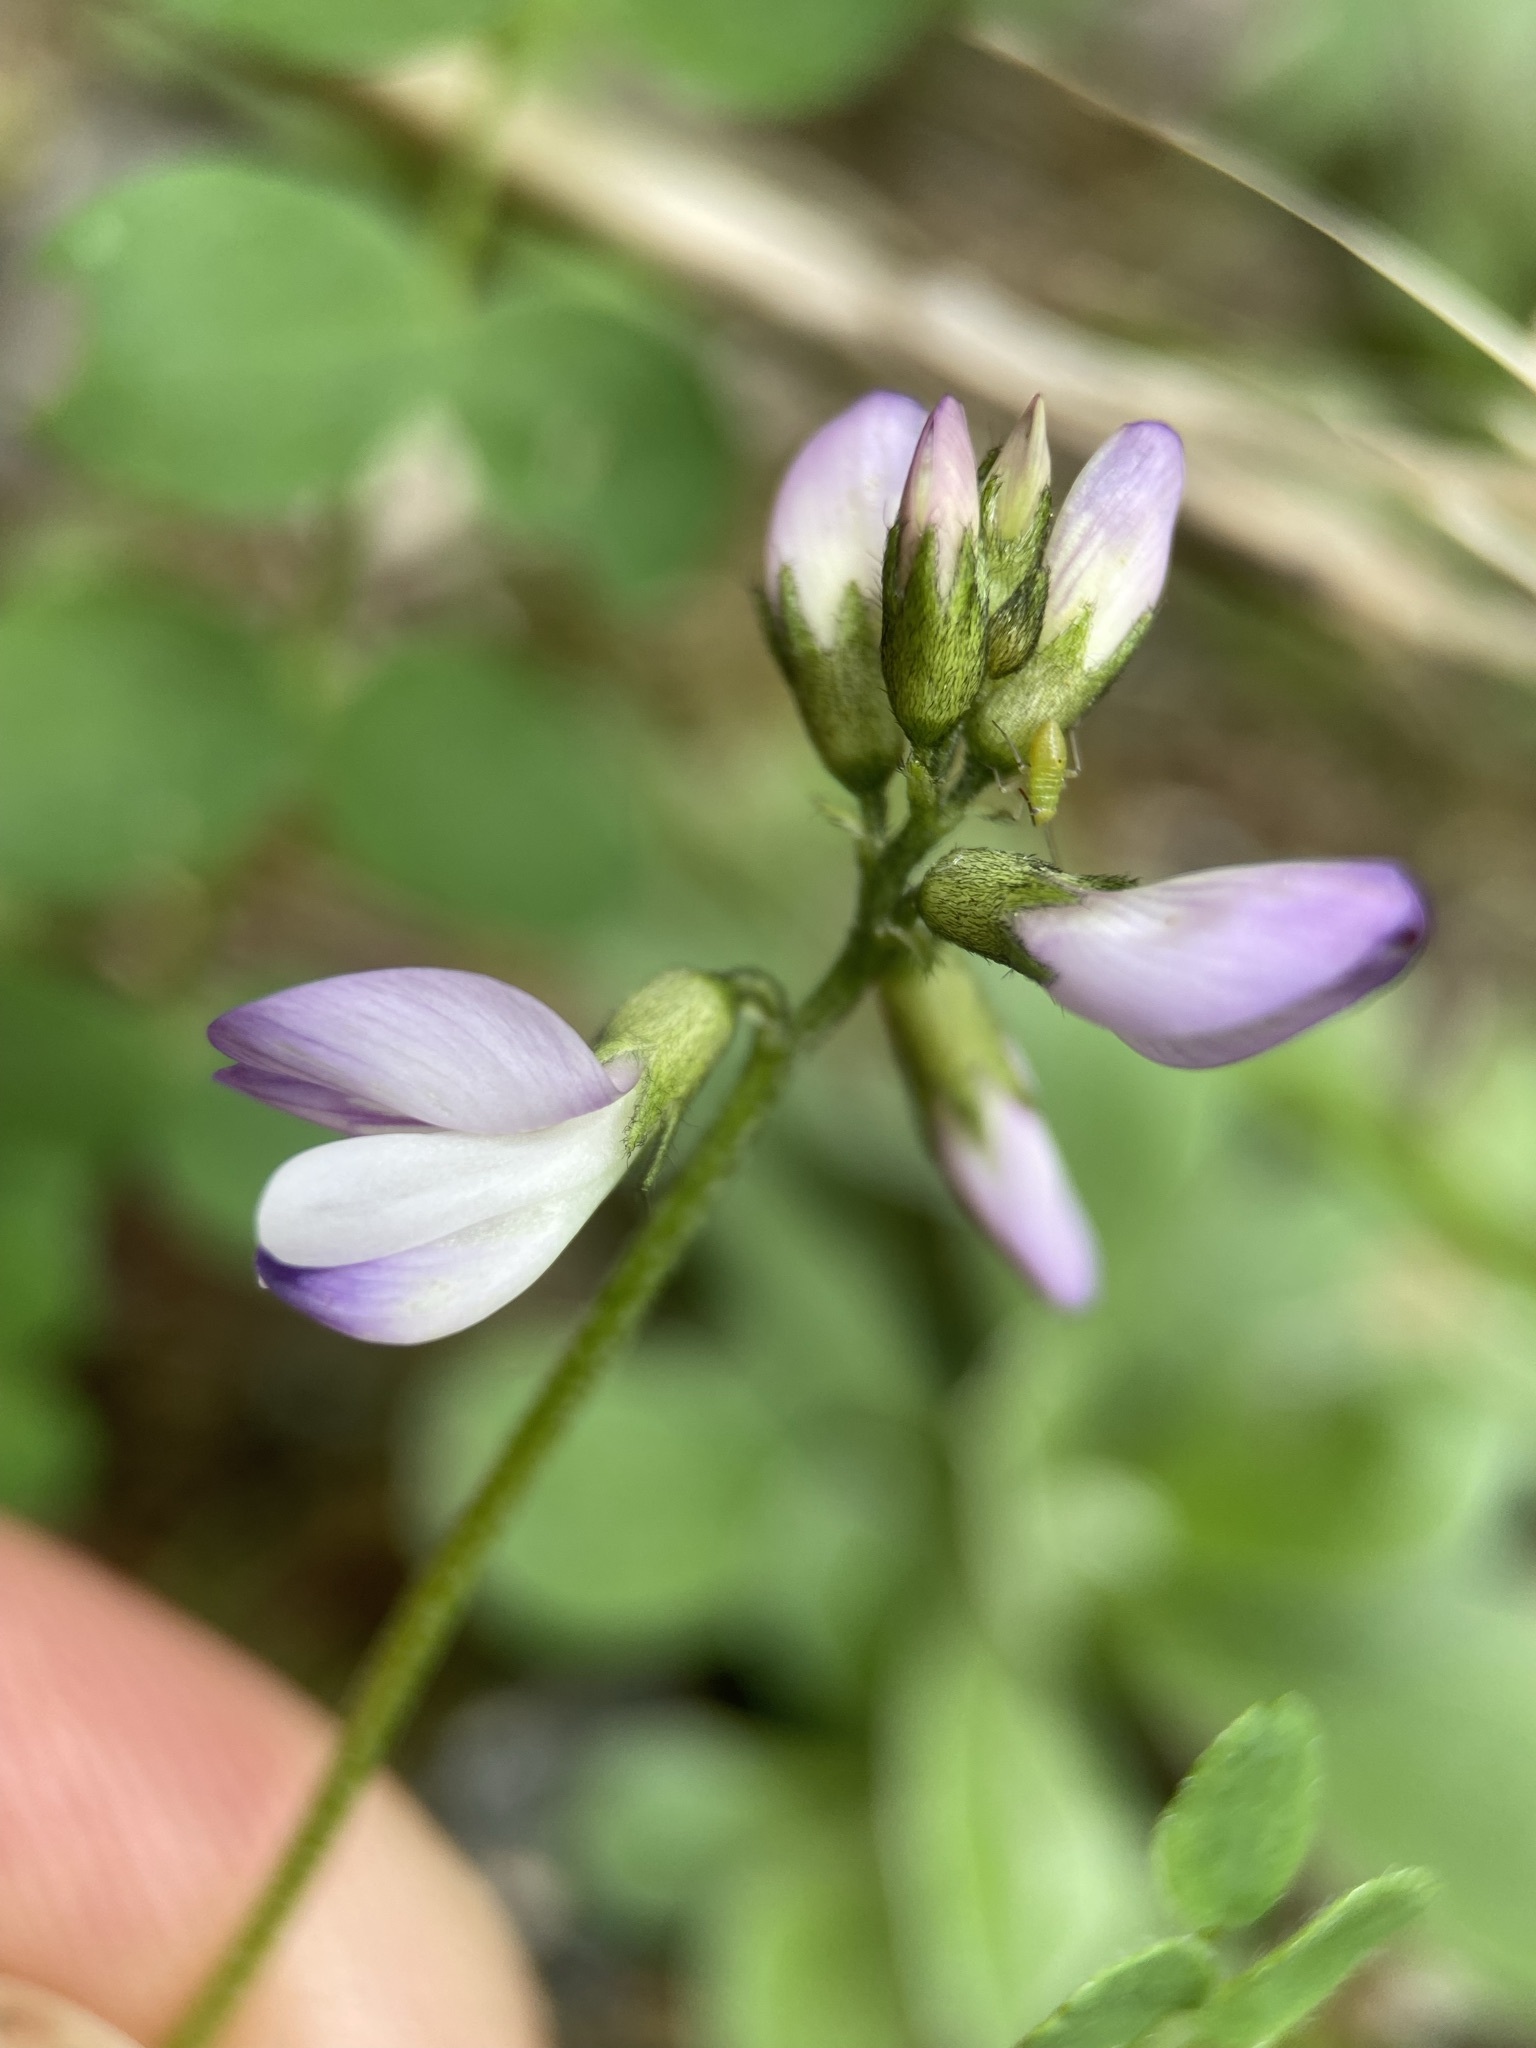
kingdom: Plantae
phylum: Tracheophyta
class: Magnoliopsida
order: Fabales
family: Fabaceae
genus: Astragalus
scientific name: Astragalus alpinus
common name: Alpine milk-vetch
